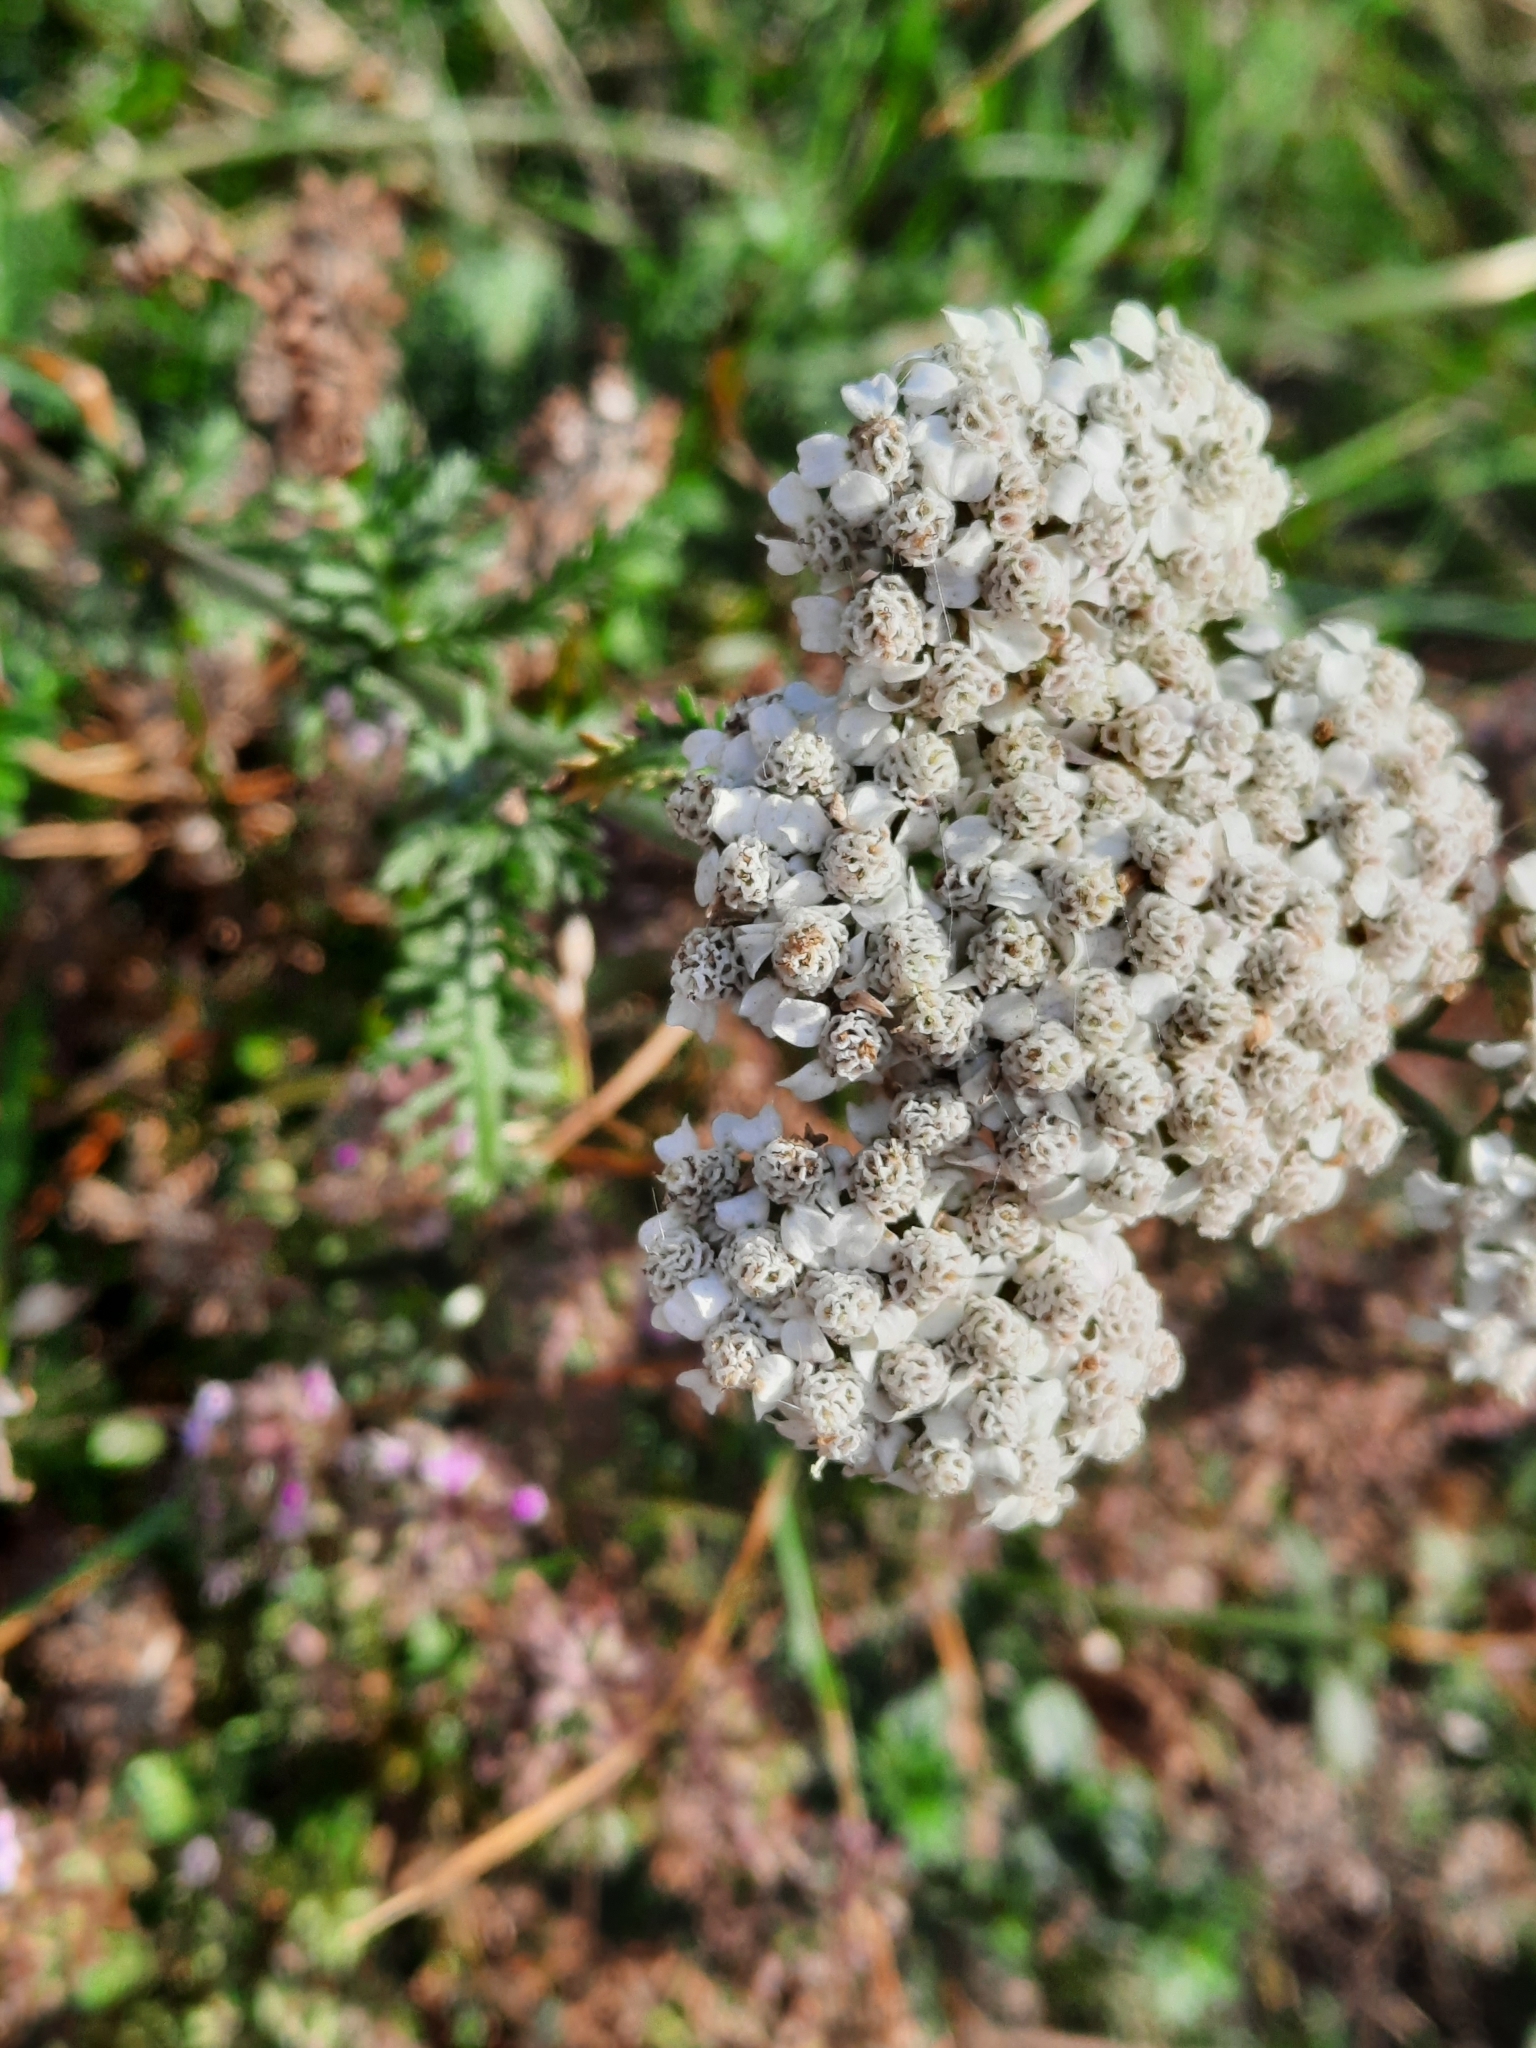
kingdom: Plantae
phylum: Tracheophyta
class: Magnoliopsida
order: Asterales
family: Asteraceae
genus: Achillea
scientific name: Achillea millefolium
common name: Yarrow
